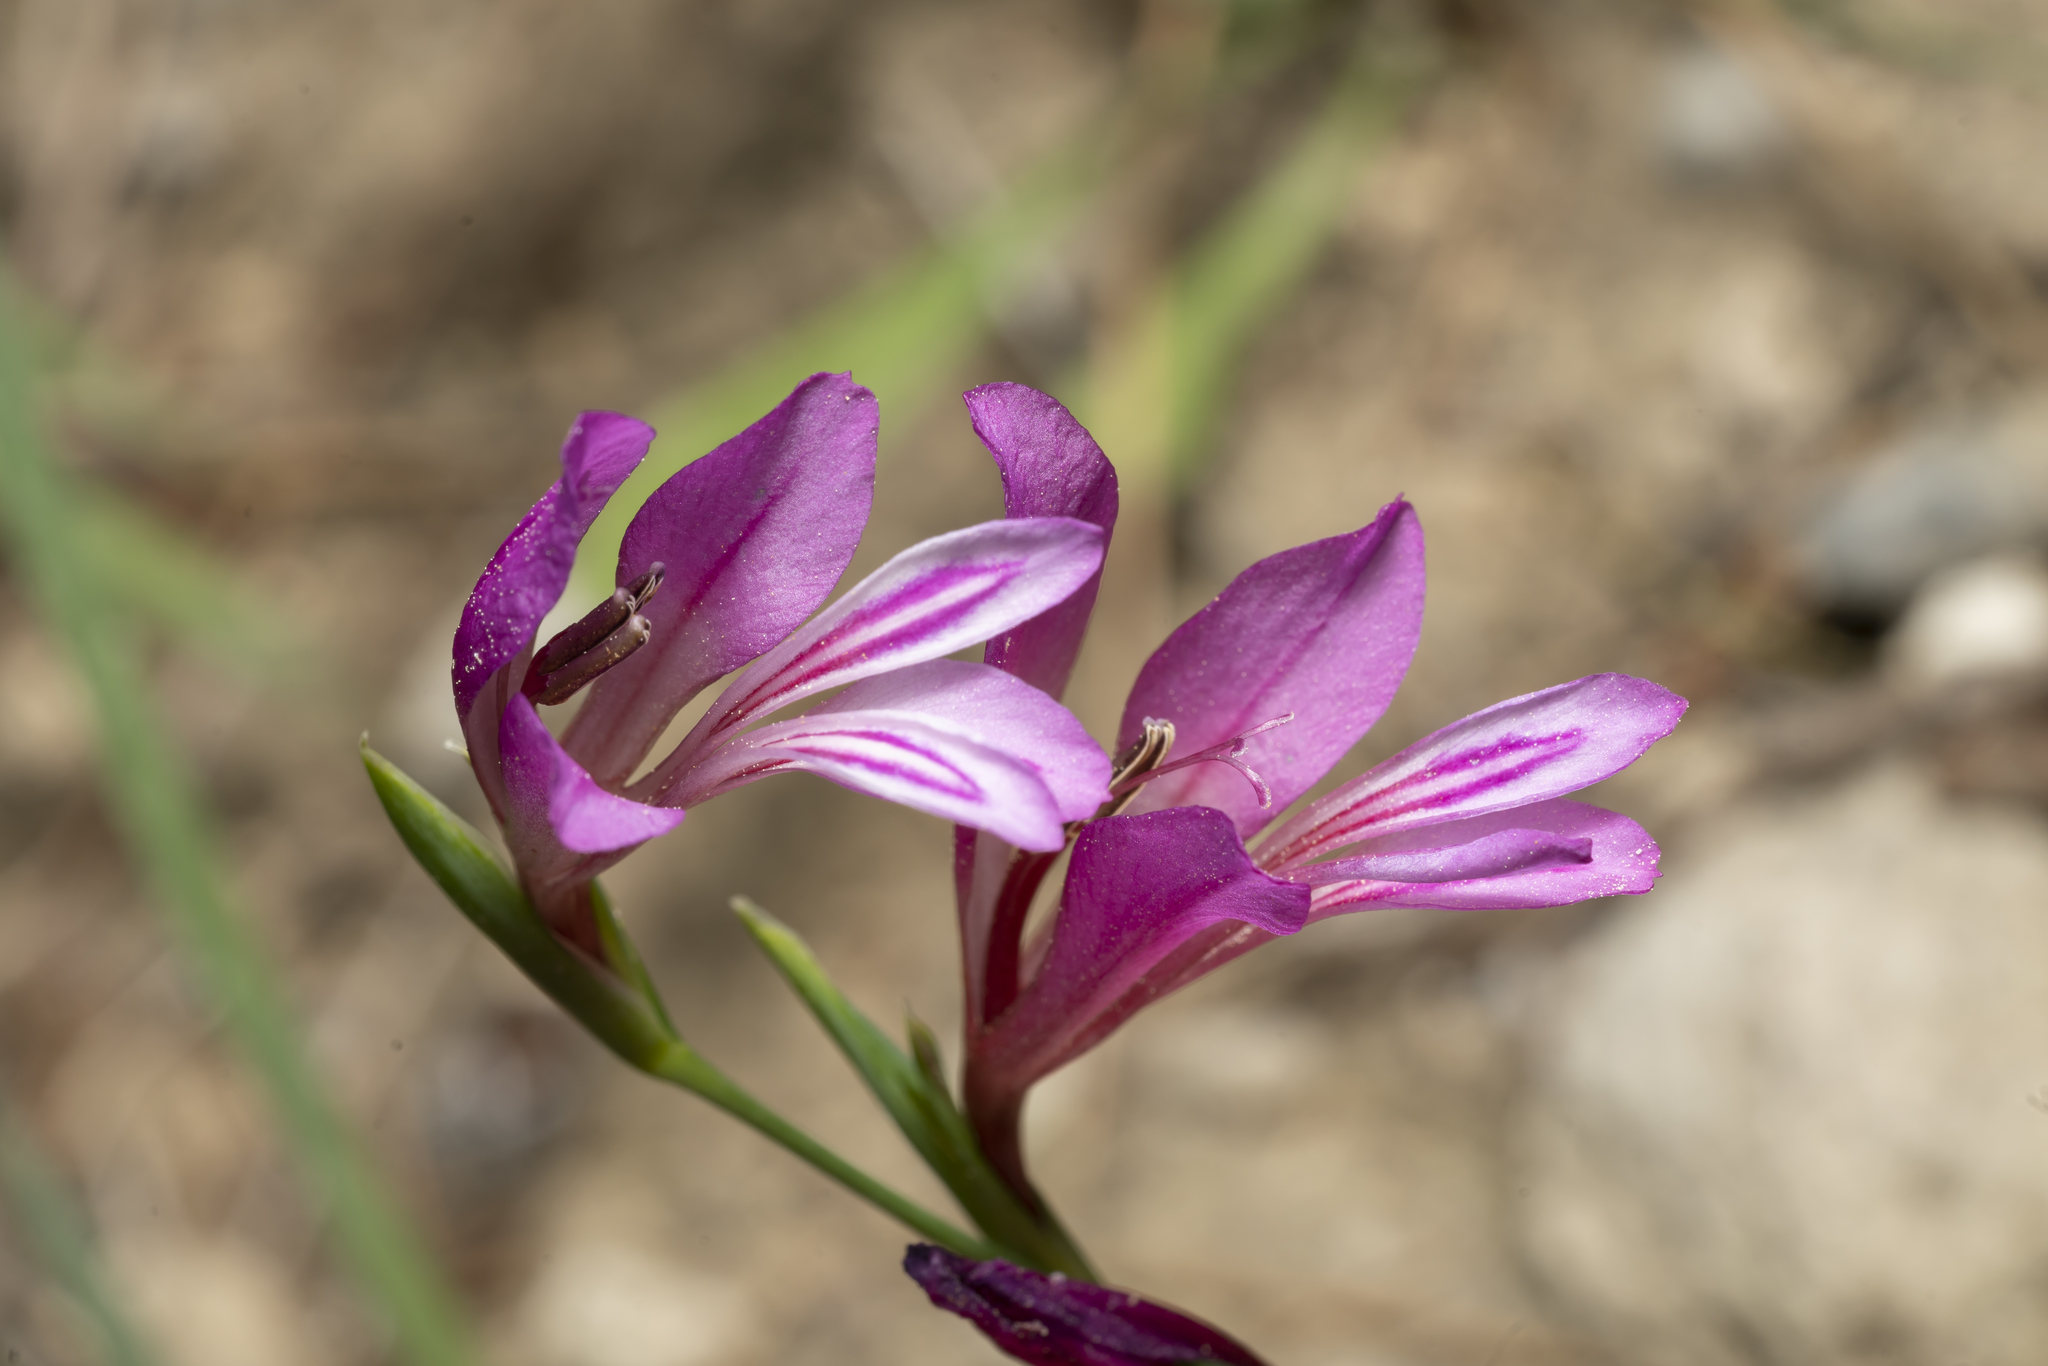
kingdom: Plantae
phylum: Tracheophyta
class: Liliopsida
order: Asparagales
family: Iridaceae
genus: Gladiolus
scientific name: Gladiolus anatolicus
